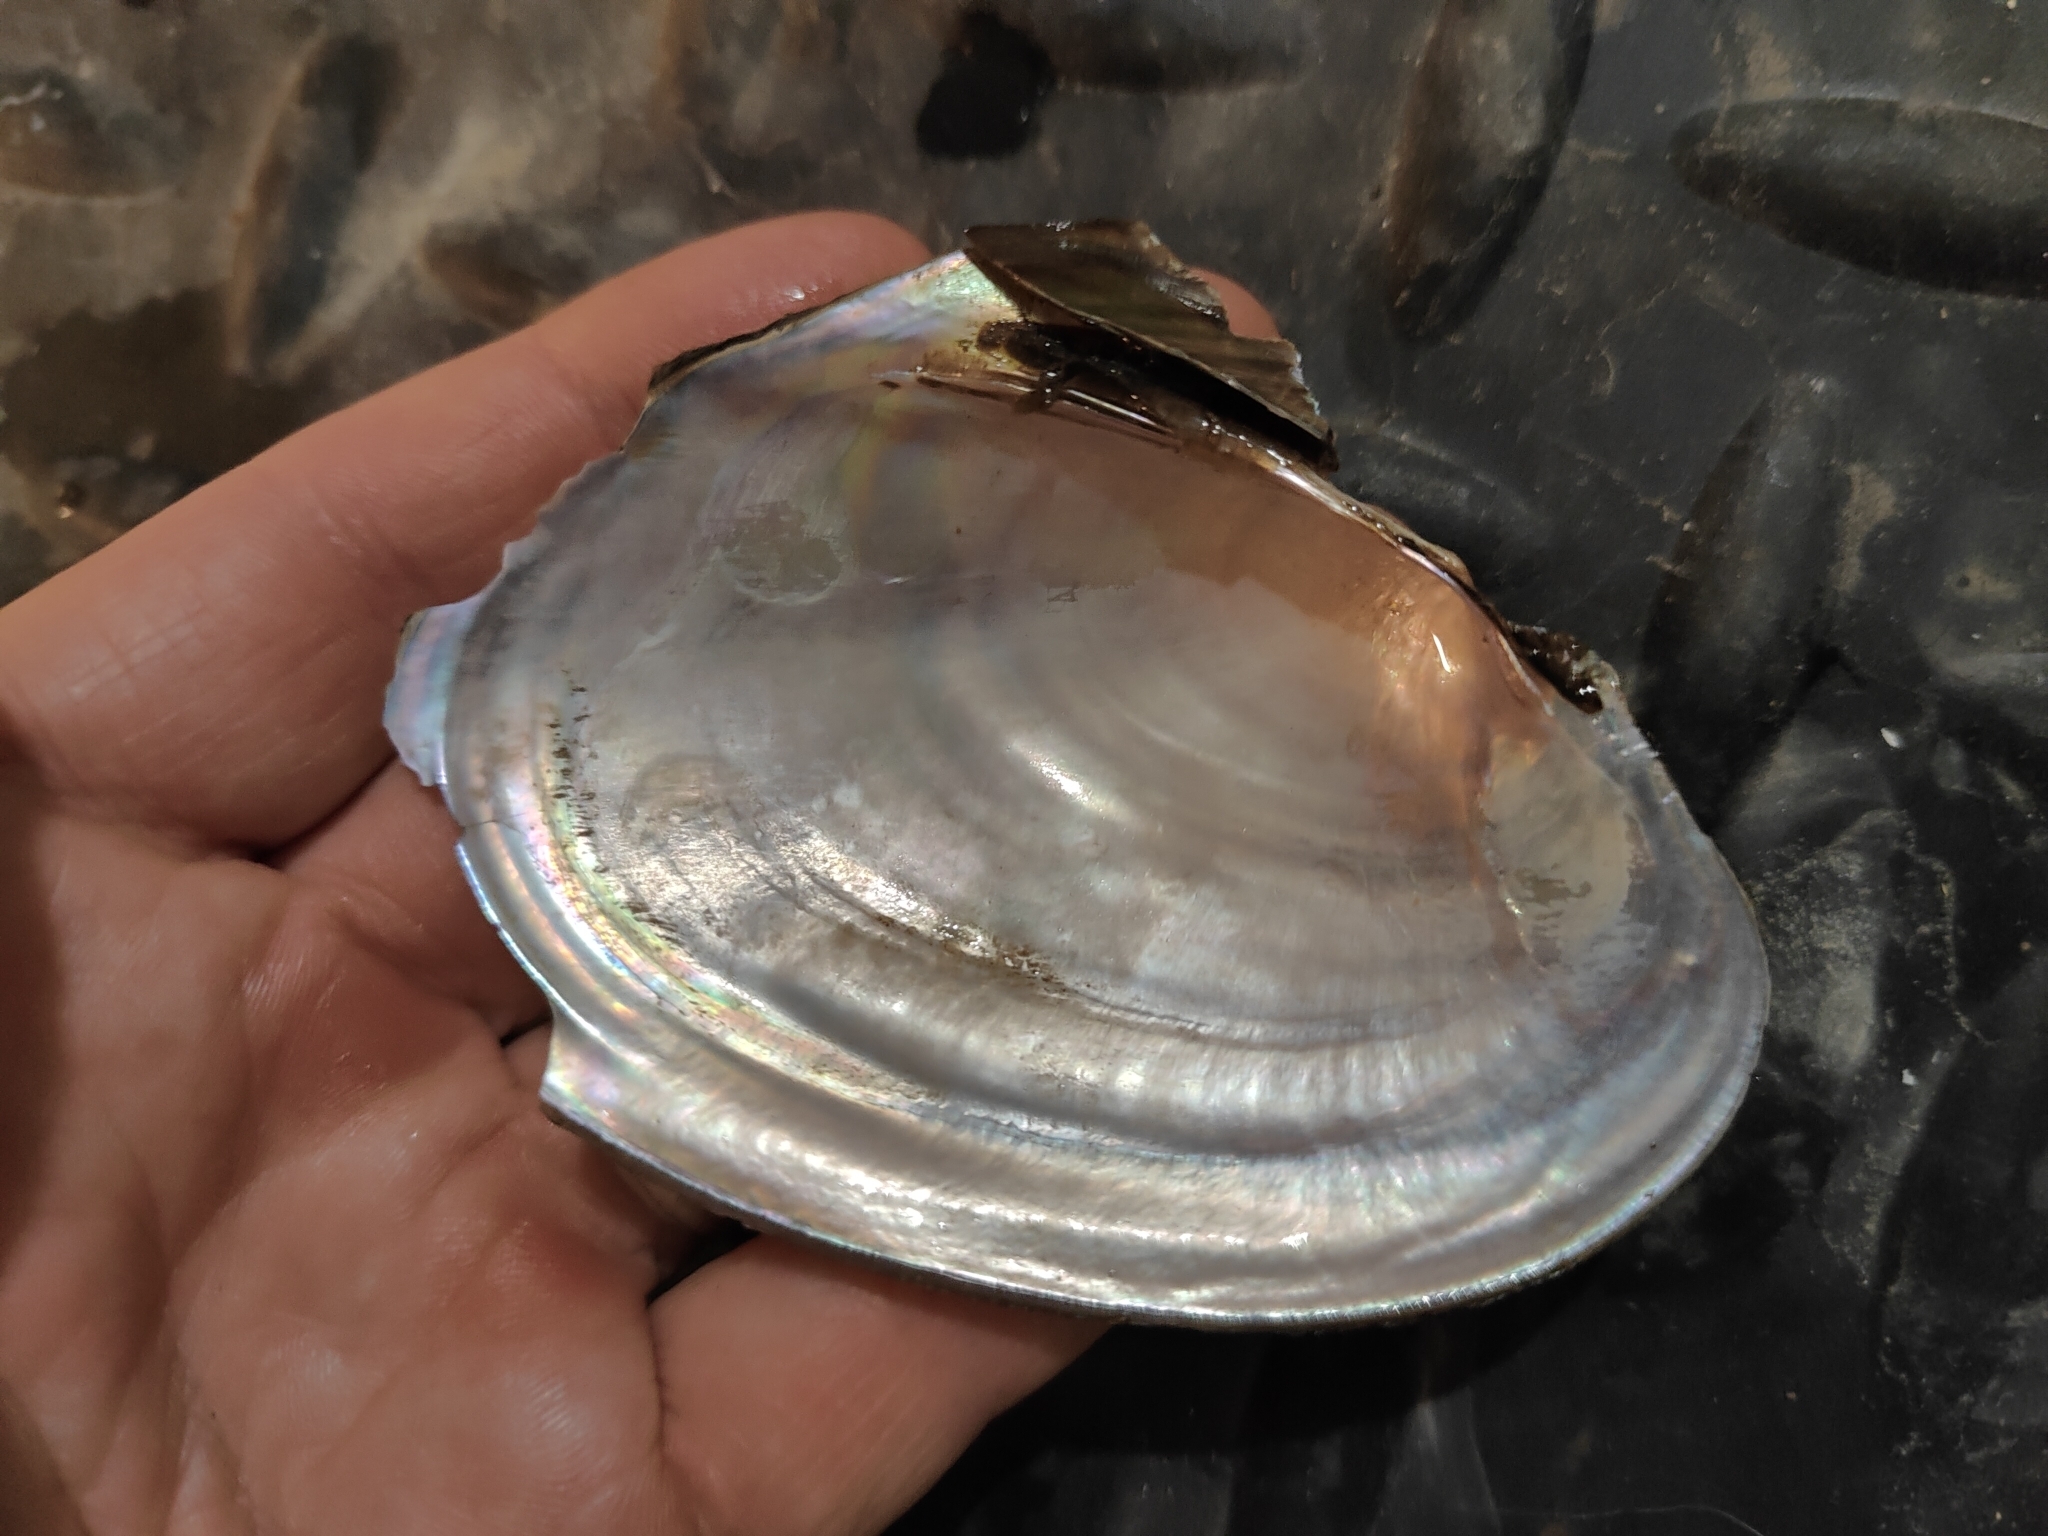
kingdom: Animalia
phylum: Mollusca
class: Bivalvia
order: Unionida
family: Unionidae
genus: Potamilus
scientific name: Potamilus ohiensis
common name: Pink papershell
